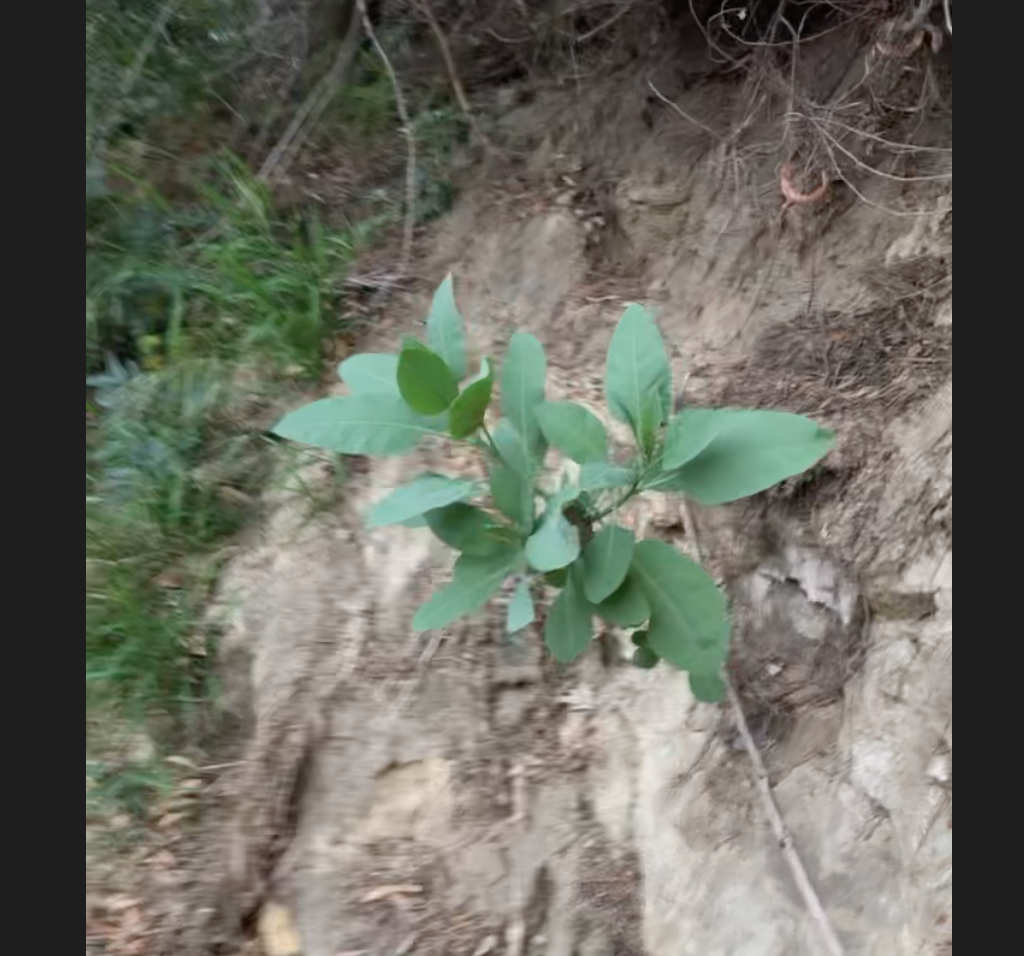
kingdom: Plantae
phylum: Tracheophyta
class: Magnoliopsida
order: Solanales
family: Solanaceae
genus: Nicotiana
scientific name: Nicotiana glauca
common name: Tree tobacco
